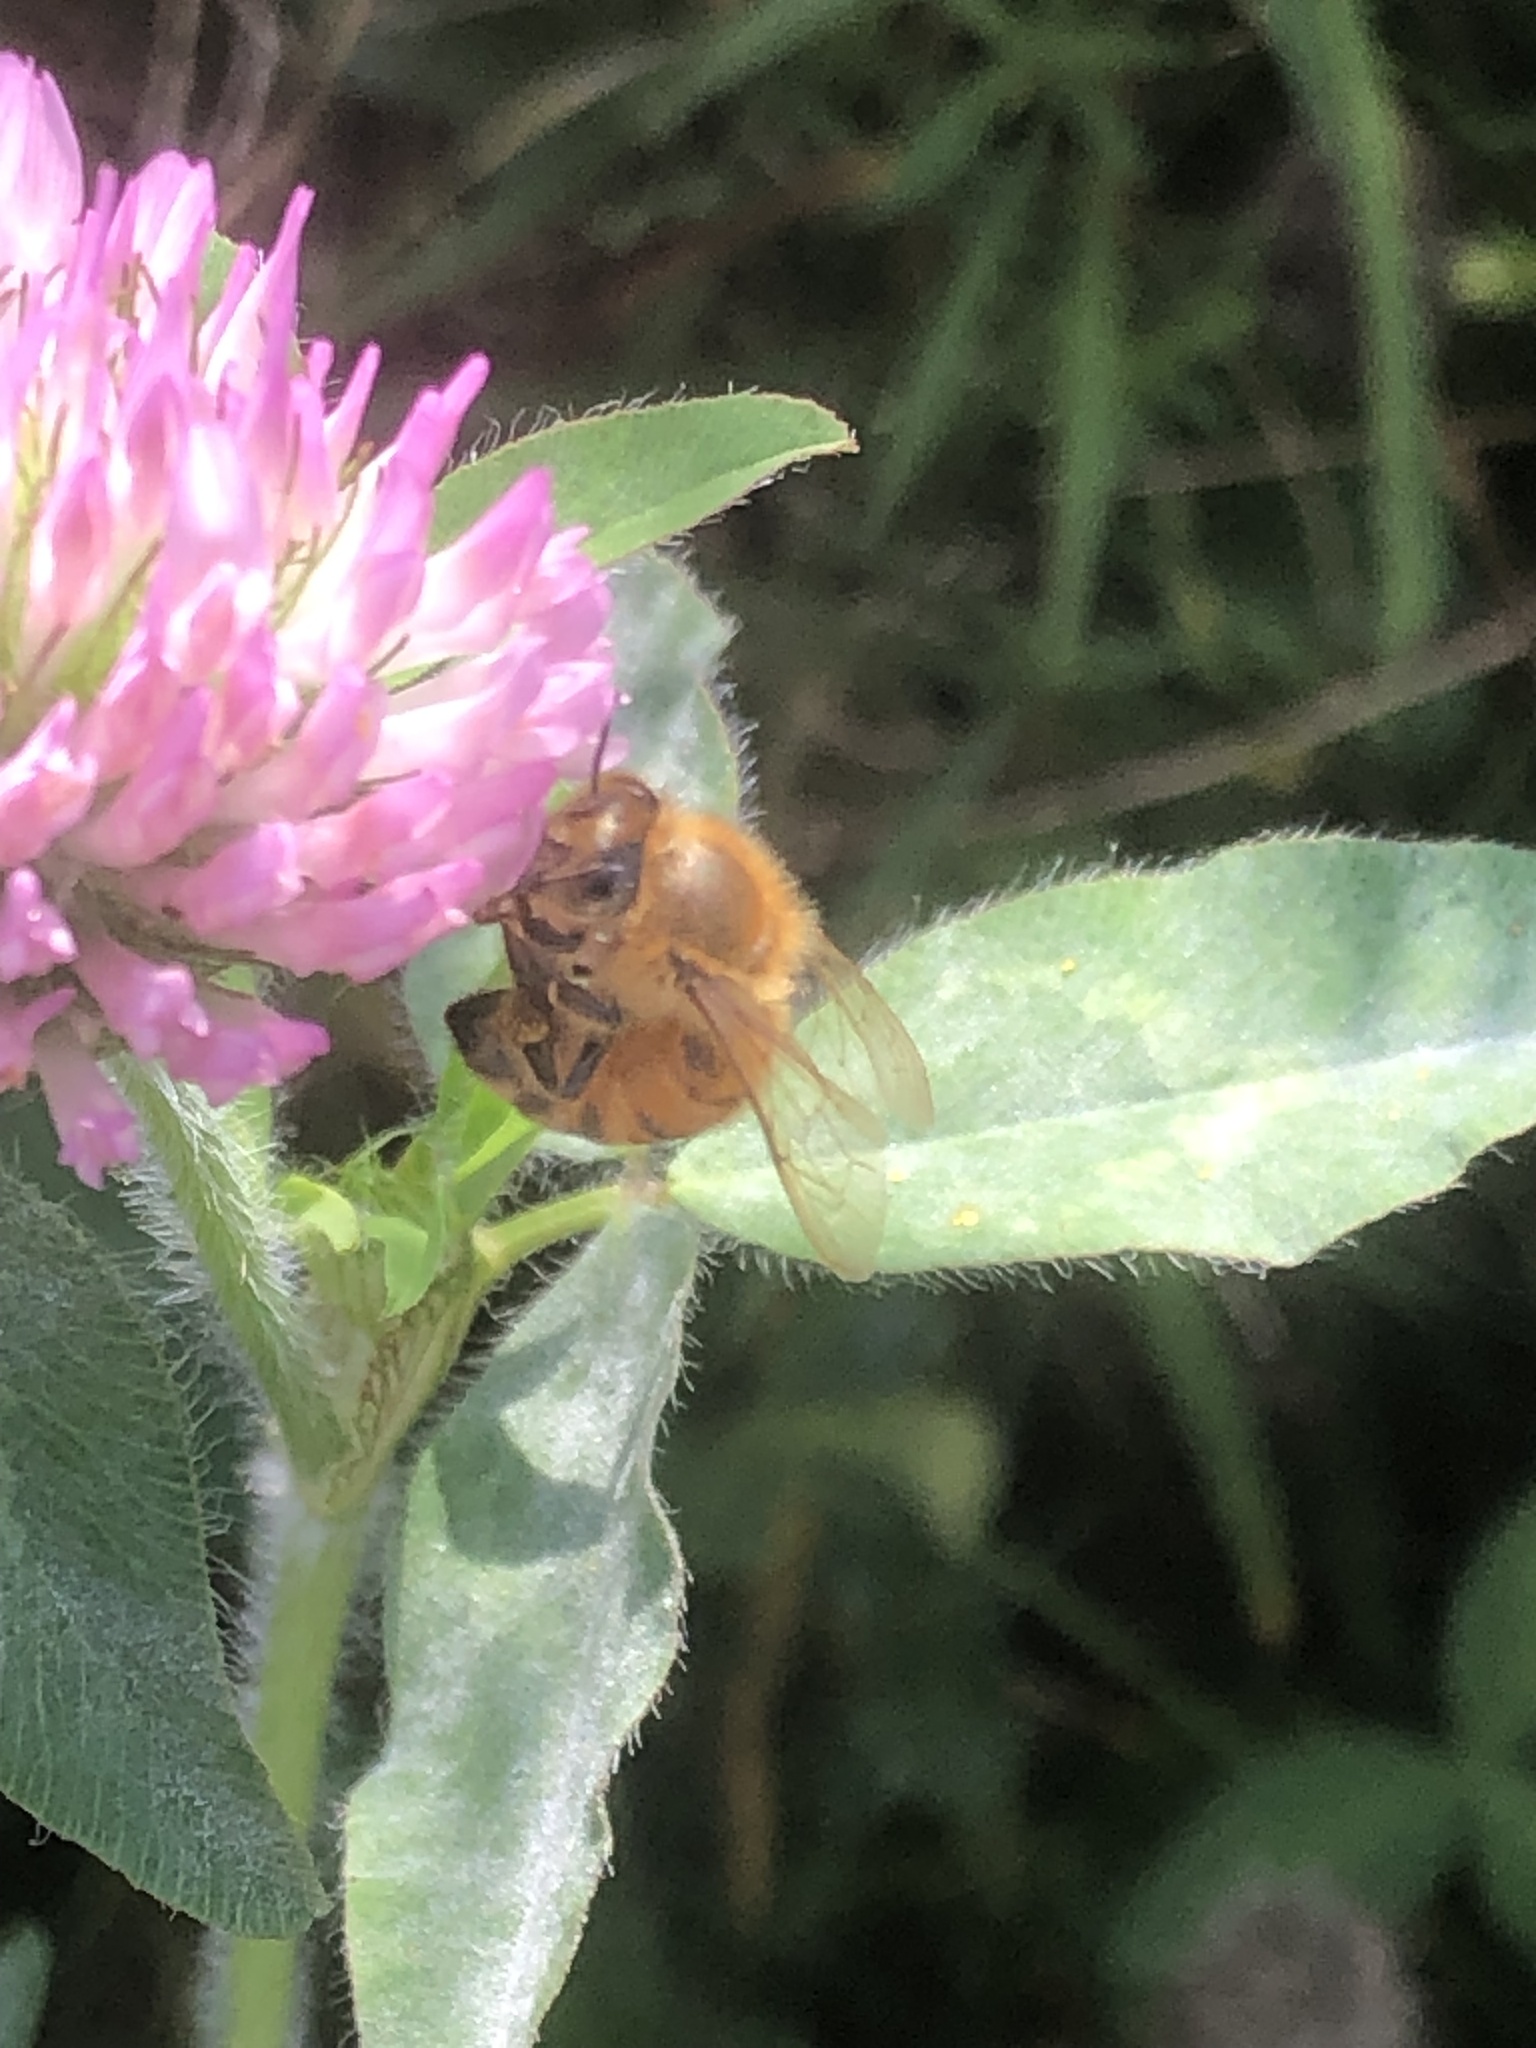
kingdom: Animalia
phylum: Arthropoda
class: Insecta
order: Hymenoptera
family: Apidae
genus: Apis
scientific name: Apis mellifera
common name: Honey bee
